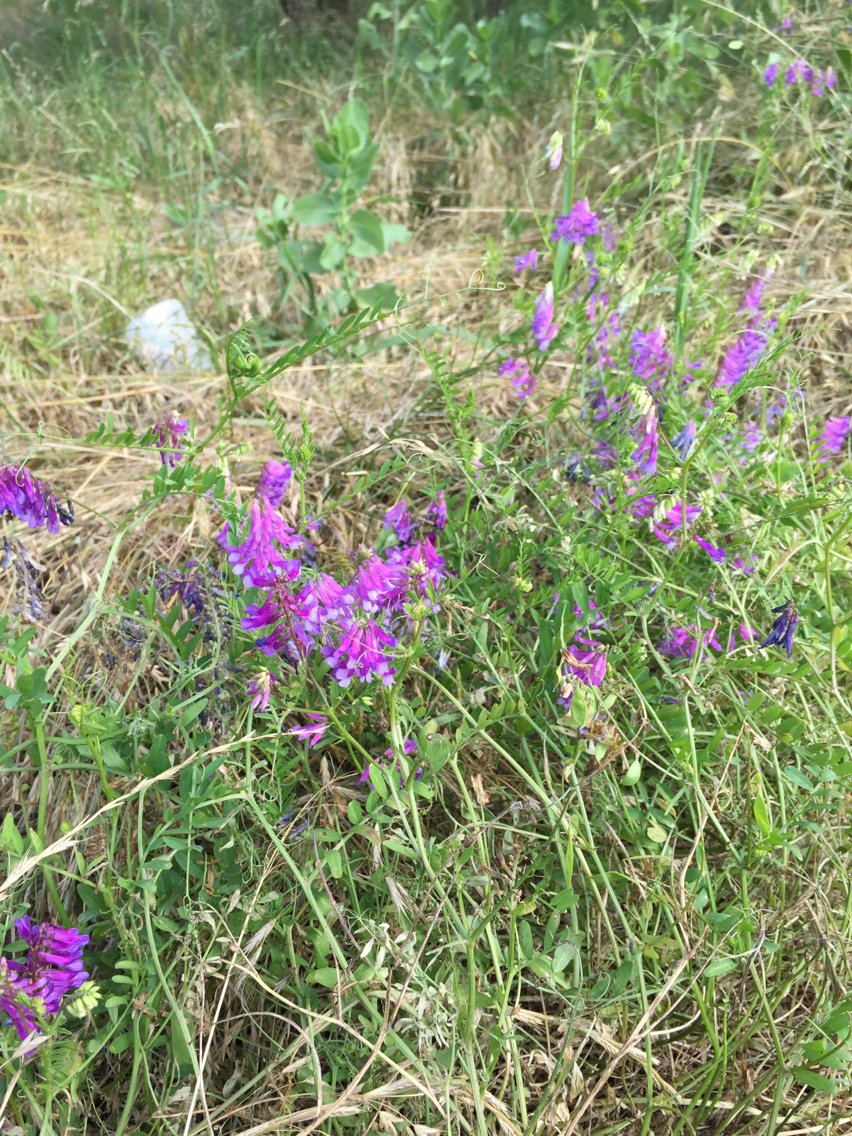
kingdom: Plantae
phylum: Tracheophyta
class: Magnoliopsida
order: Fabales
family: Fabaceae
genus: Vicia
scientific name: Vicia villosa
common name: Fodder vetch
